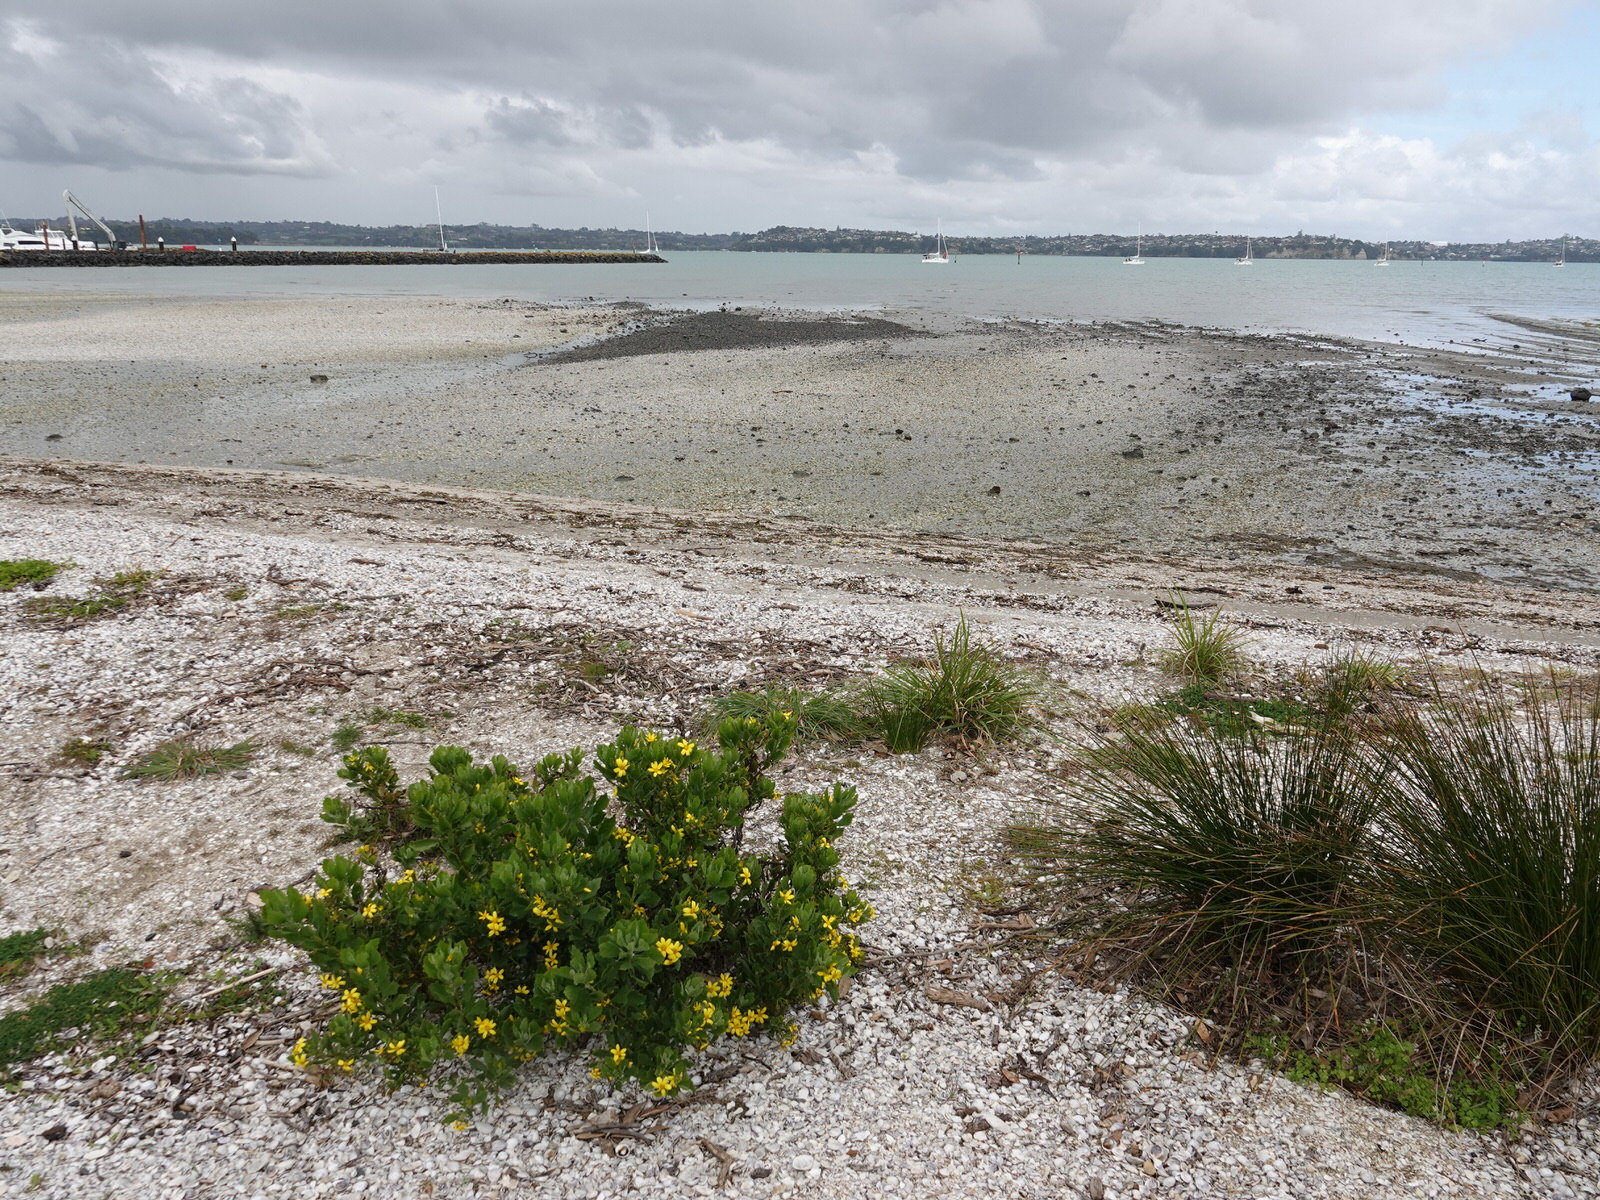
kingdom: Plantae
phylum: Tracheophyta
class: Magnoliopsida
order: Asterales
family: Asteraceae
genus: Osteospermum
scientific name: Osteospermum moniliferum
